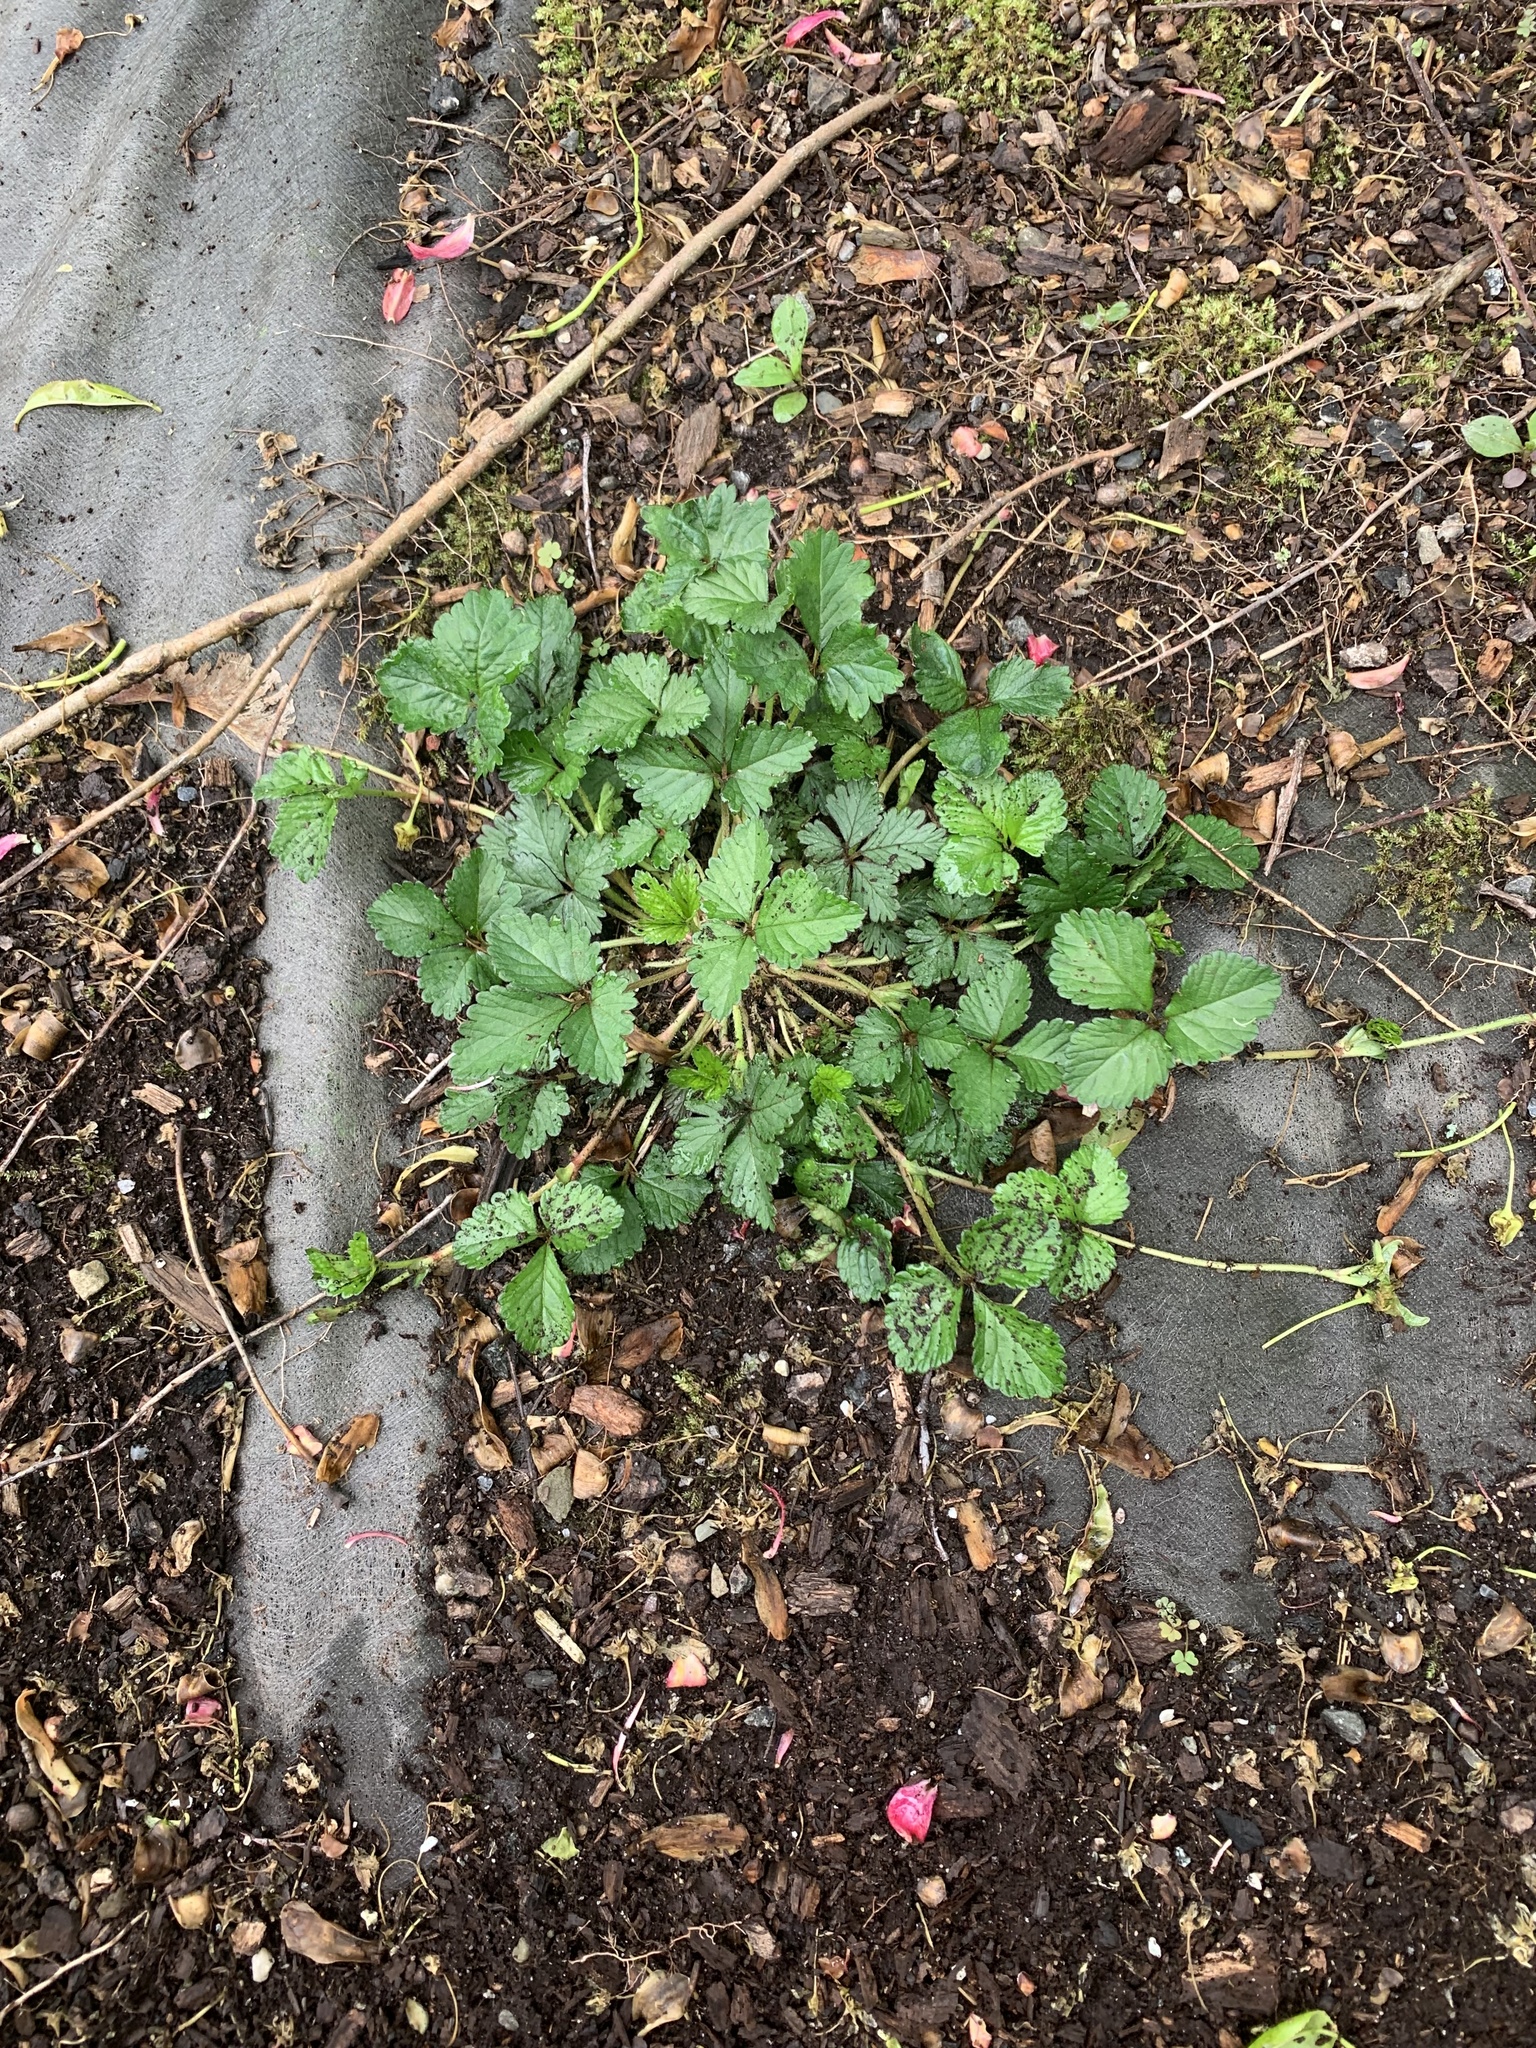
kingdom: Plantae
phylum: Tracheophyta
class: Magnoliopsida
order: Rosales
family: Rosaceae
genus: Potentilla
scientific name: Potentilla indica
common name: Yellow-flowered strawberry
